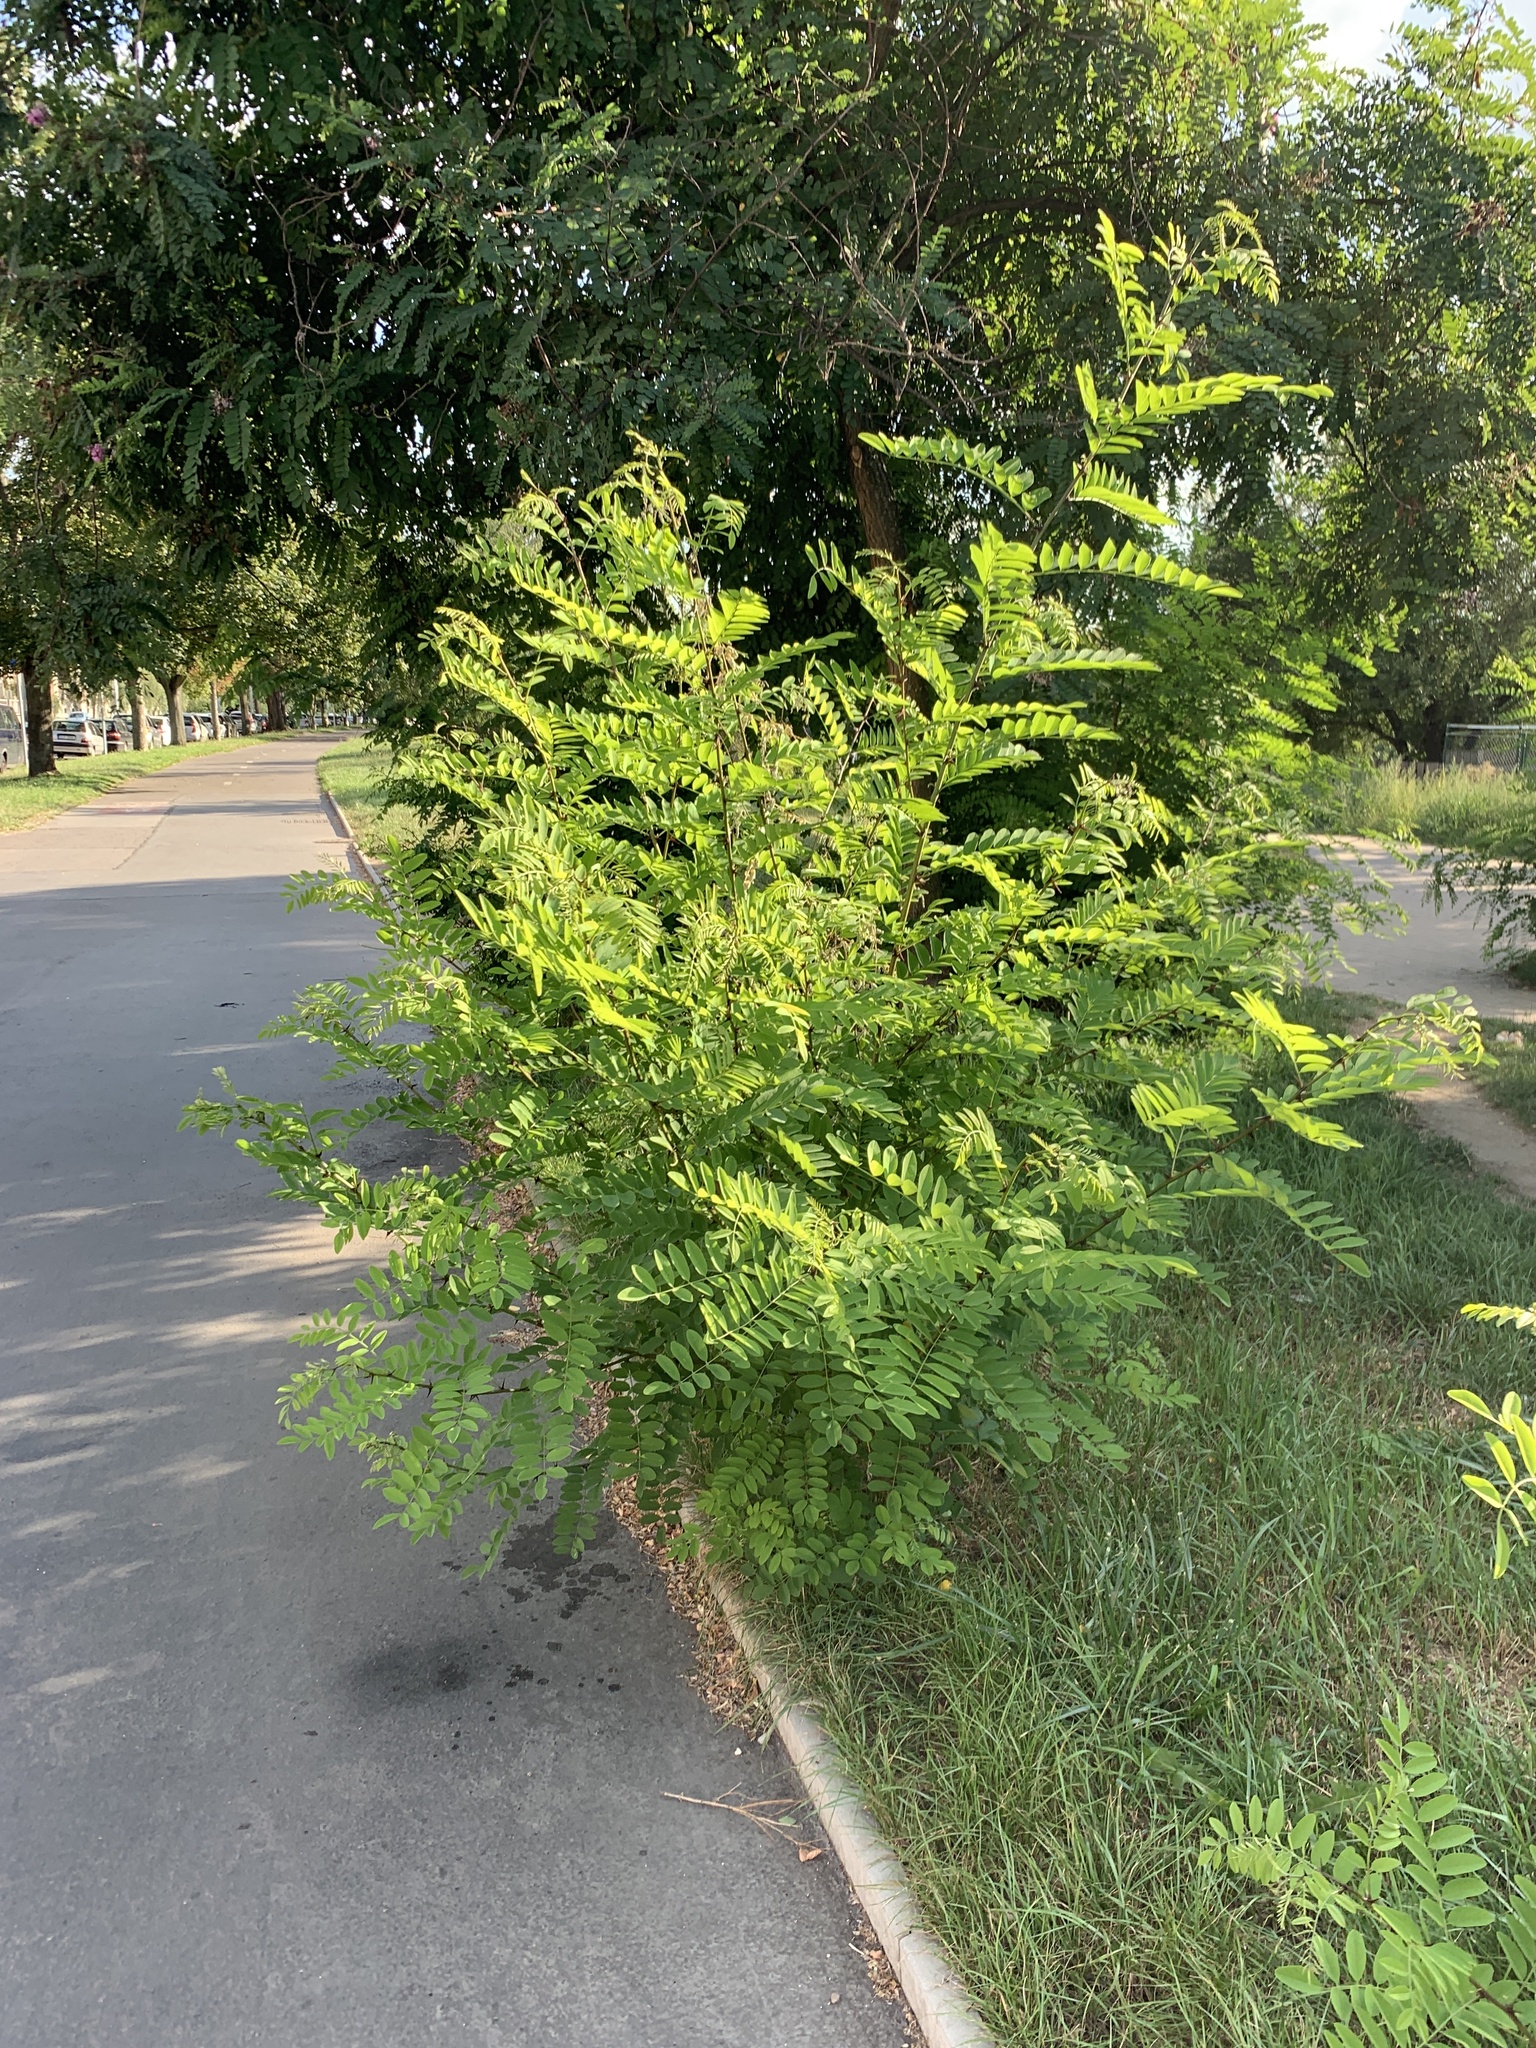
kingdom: Plantae
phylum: Tracheophyta
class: Magnoliopsida
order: Fabales
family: Fabaceae
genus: Robinia
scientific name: Robinia pseudoacacia
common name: Black locust
